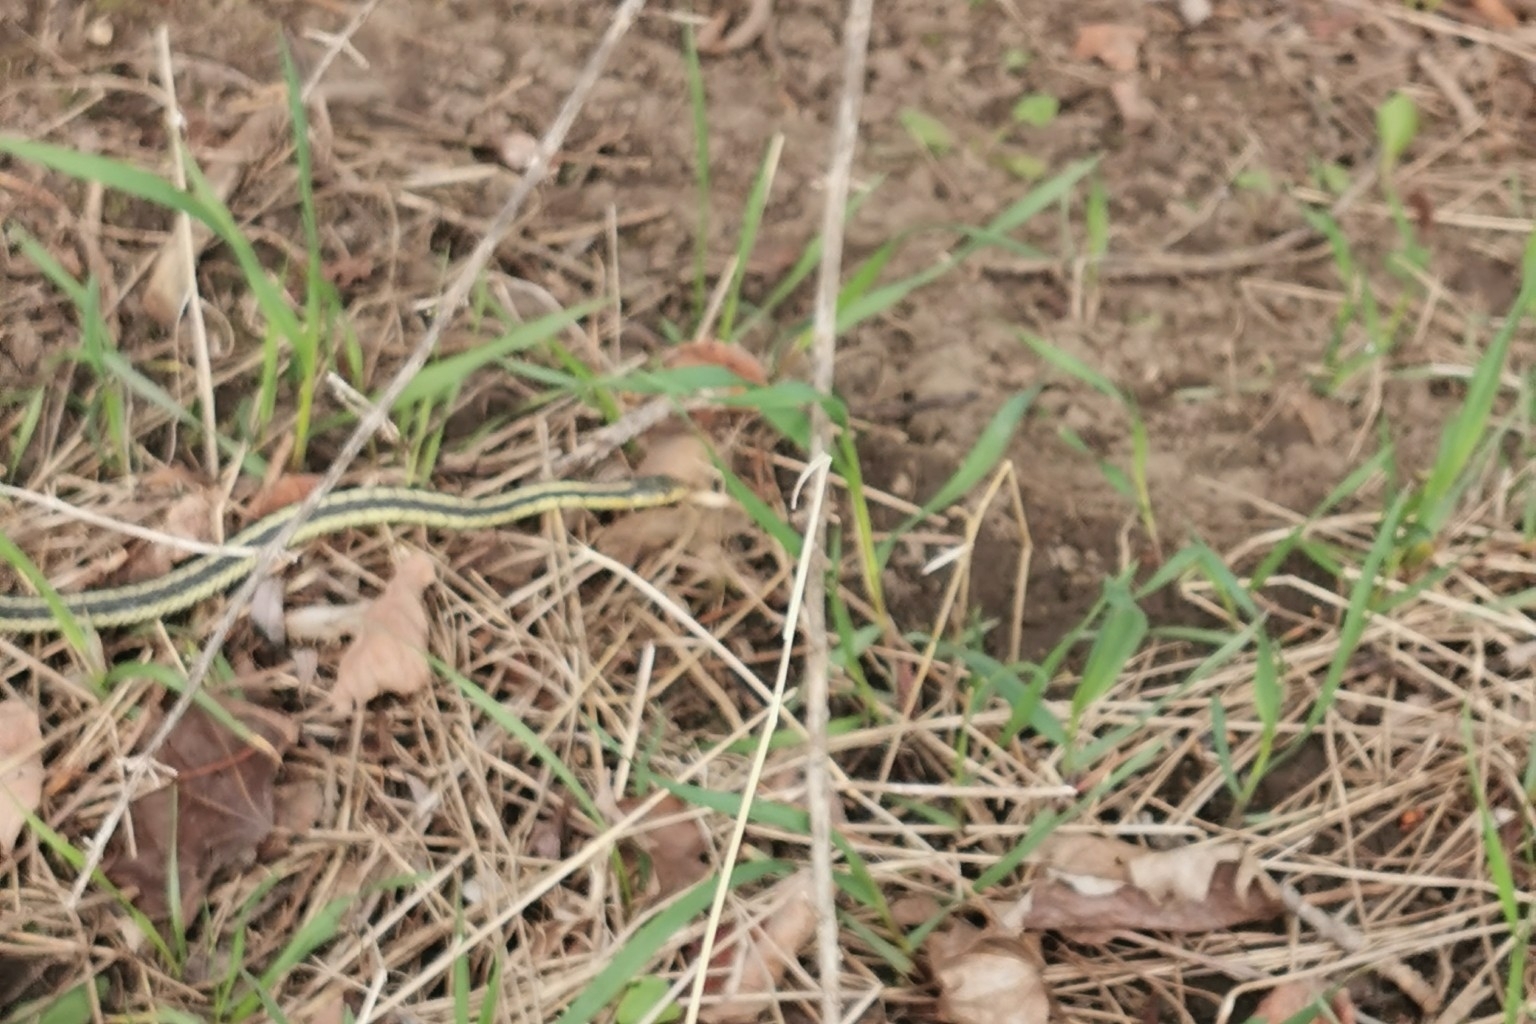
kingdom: Animalia
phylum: Chordata
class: Squamata
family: Colubridae
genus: Thamnophis
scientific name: Thamnophis sirtalis
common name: Common garter snake
